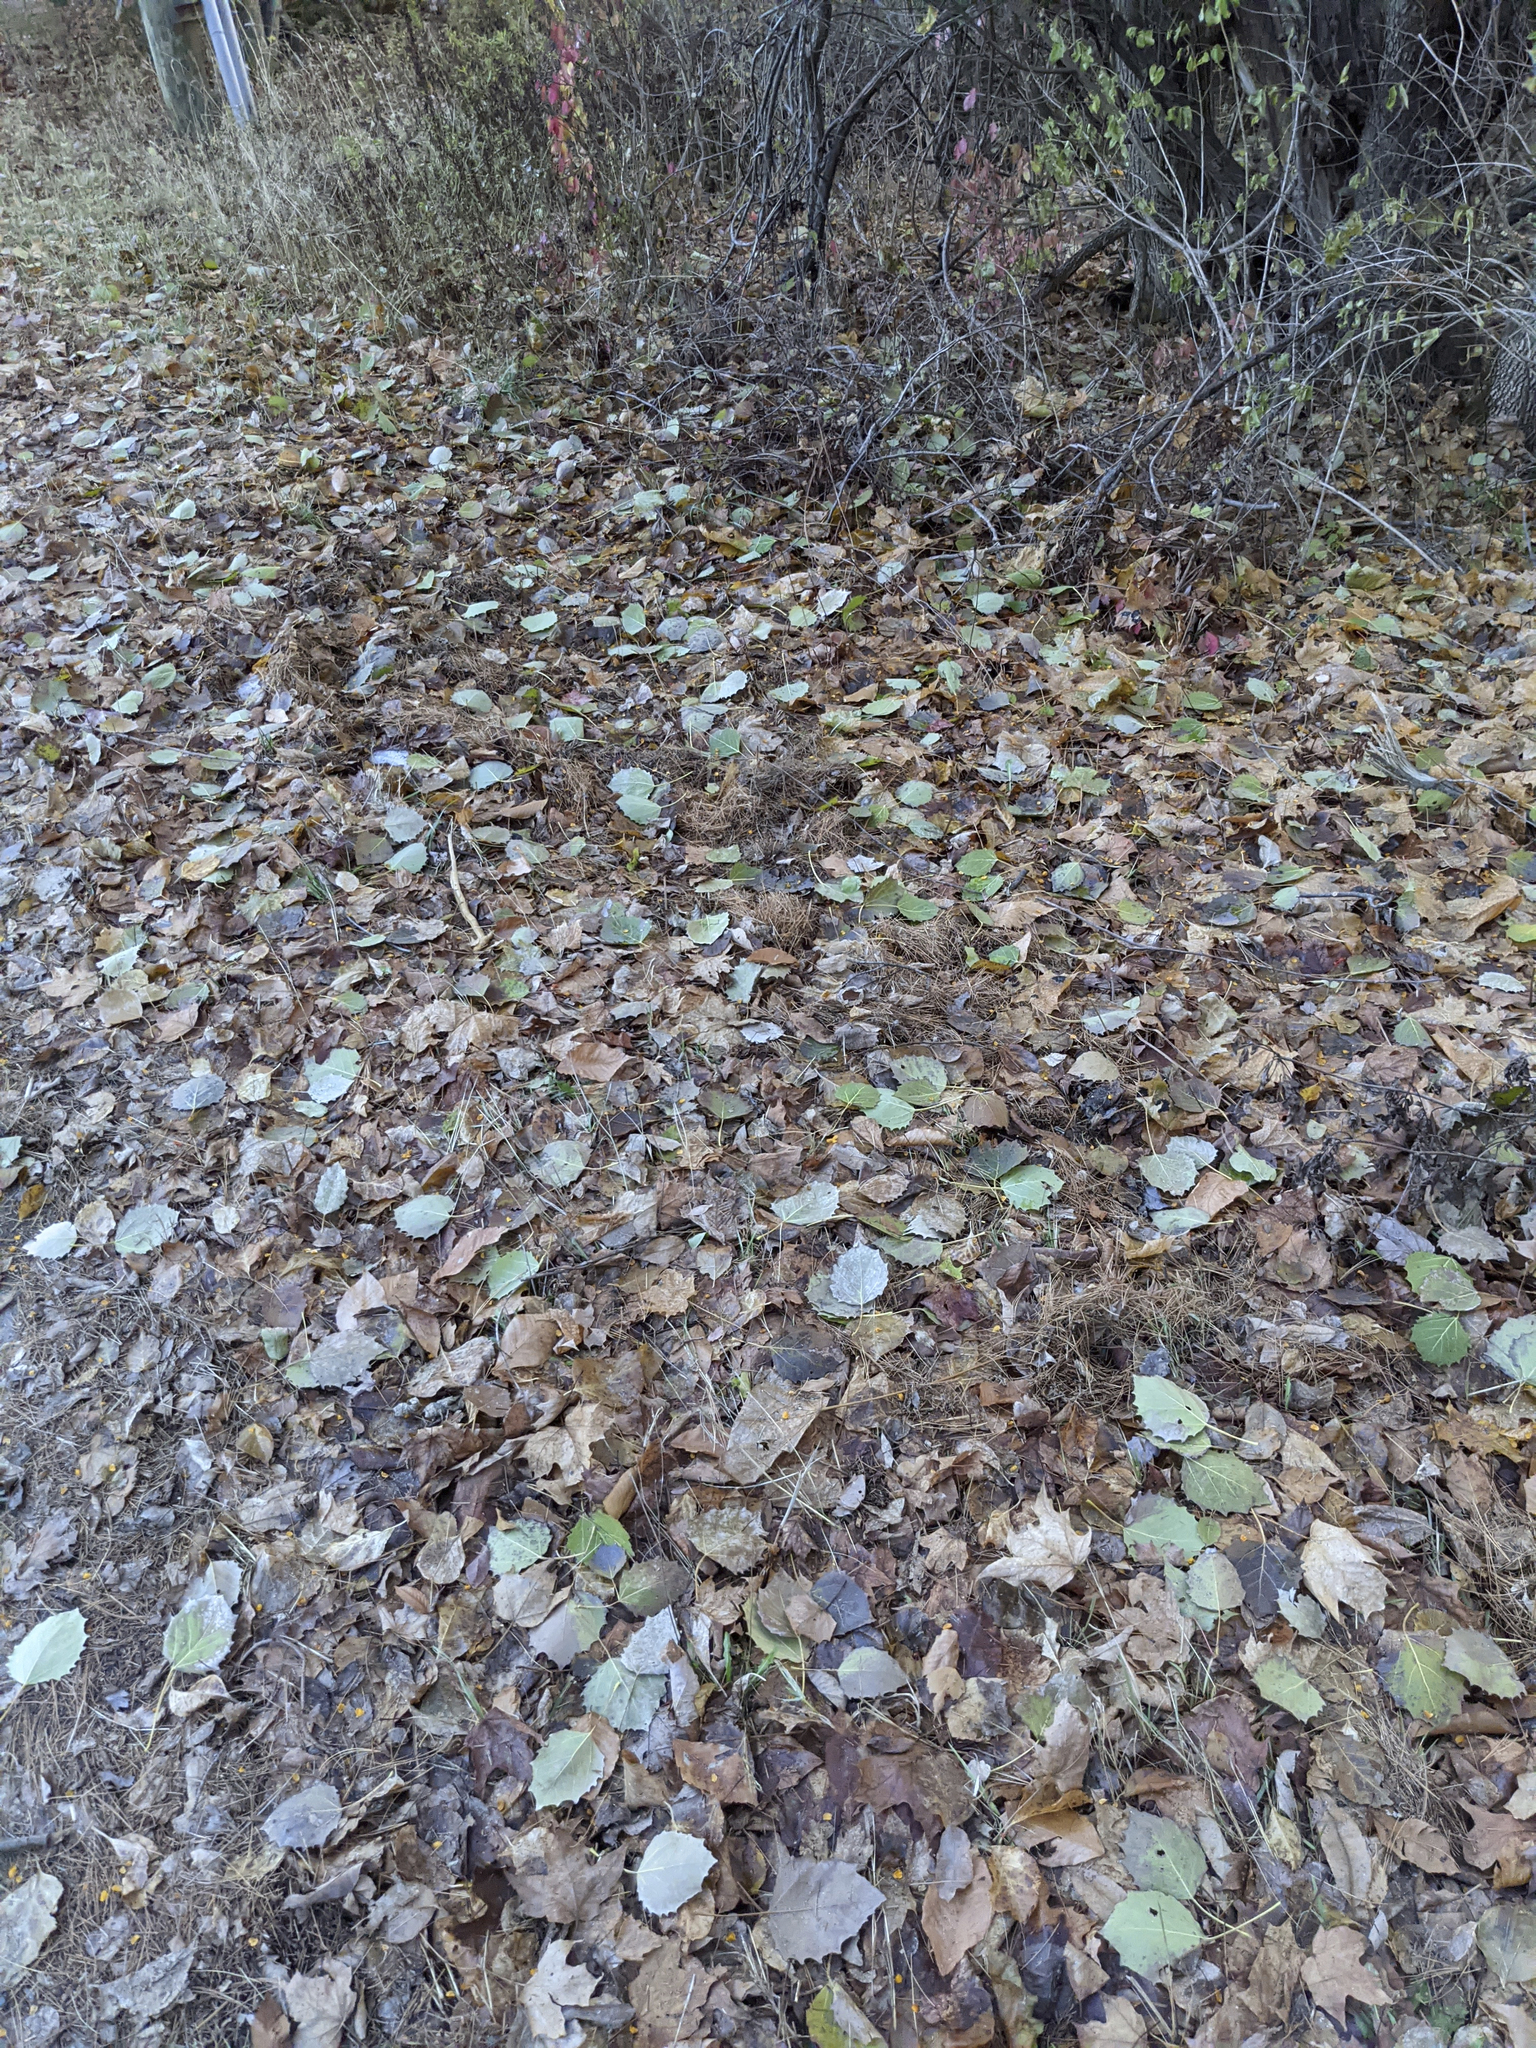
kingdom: Plantae
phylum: Tracheophyta
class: Magnoliopsida
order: Malpighiales
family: Salicaceae
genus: Populus
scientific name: Populus grandidentata
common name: Bigtooth aspen
